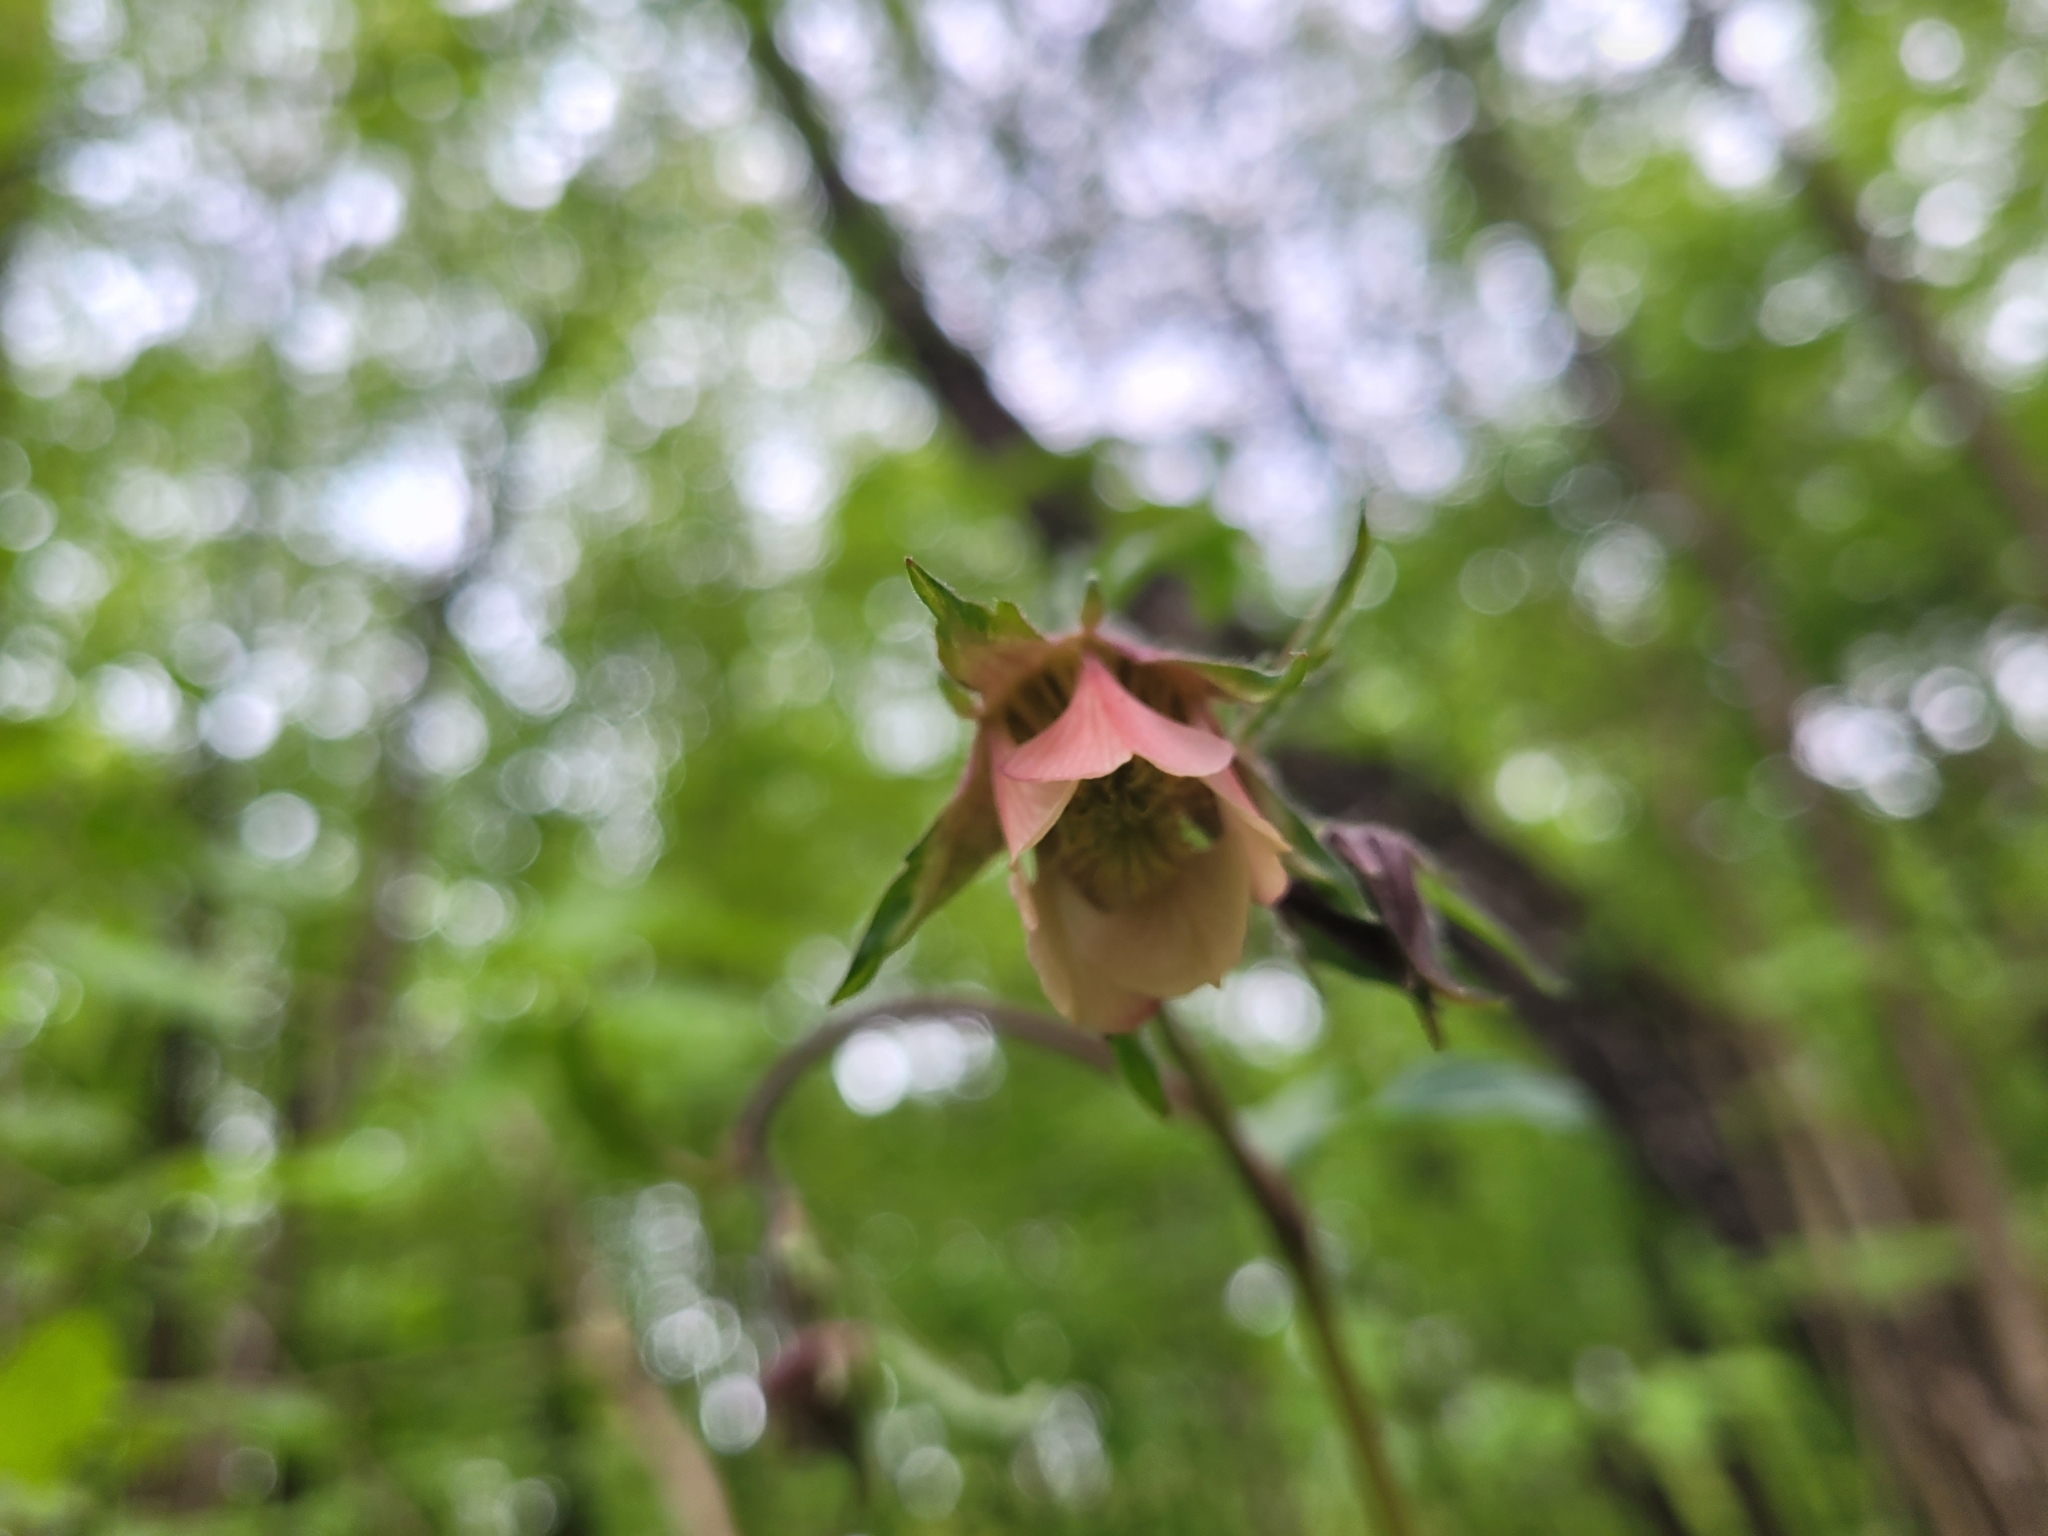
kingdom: Plantae
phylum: Tracheophyta
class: Magnoliopsida
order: Rosales
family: Rosaceae
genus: Geum
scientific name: Geum rivale
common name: Water avens
